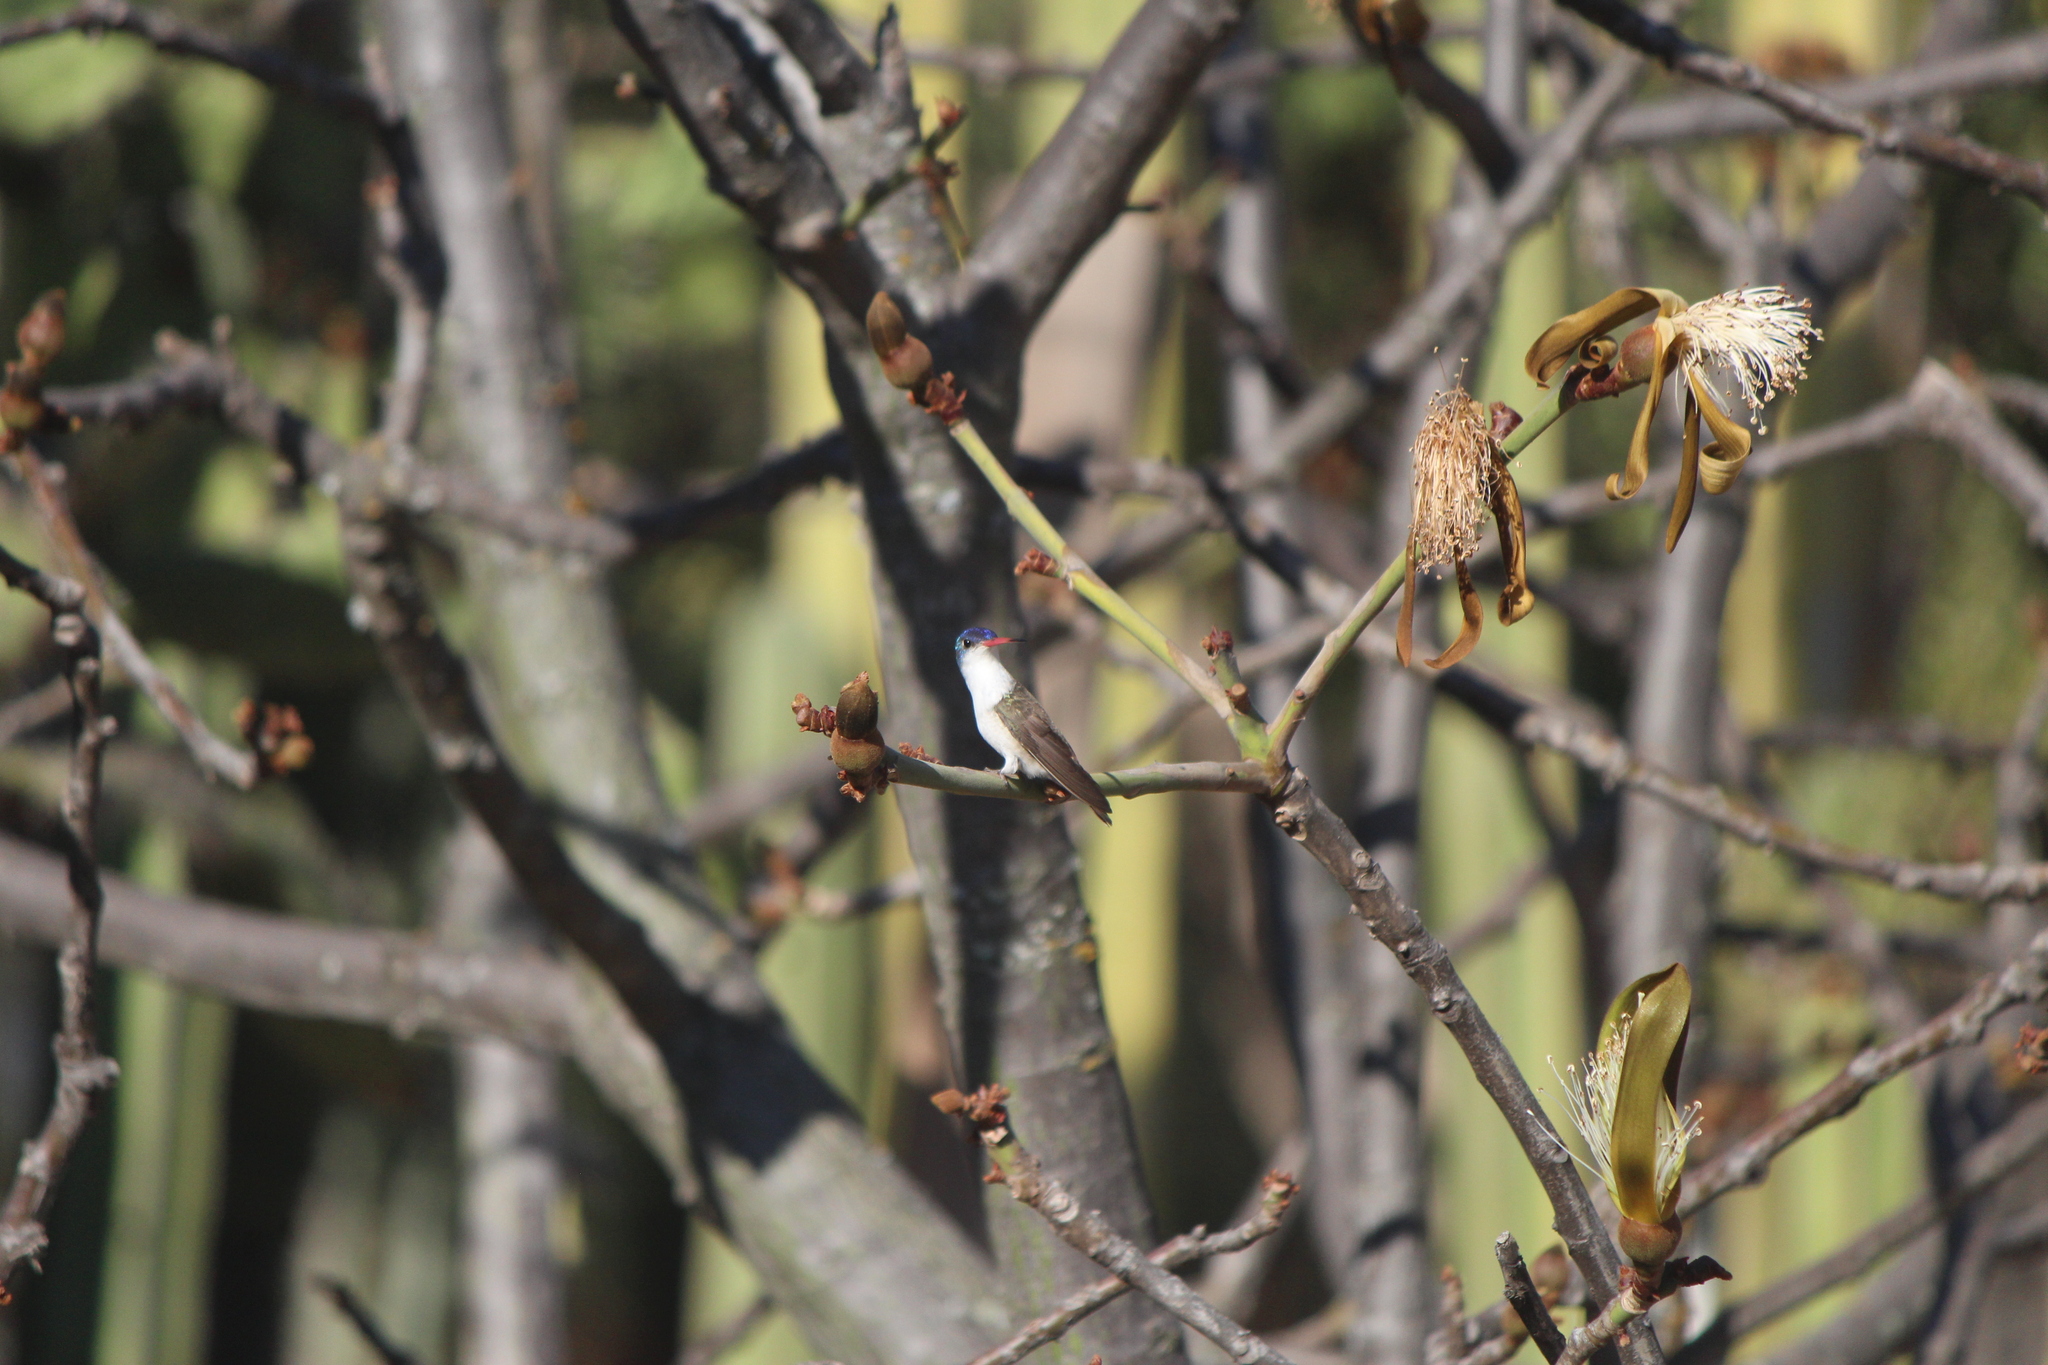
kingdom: Animalia
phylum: Chordata
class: Aves
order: Apodiformes
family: Trochilidae
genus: Leucolia
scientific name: Leucolia violiceps
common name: Violet-crowned hummingbird
